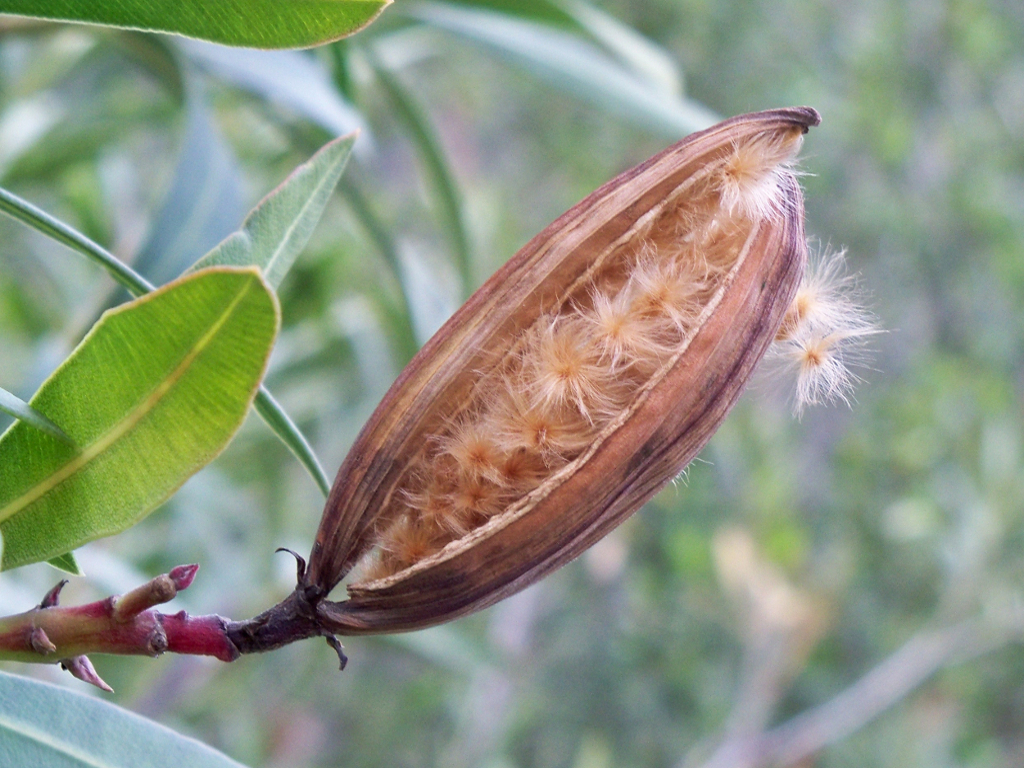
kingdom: Plantae
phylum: Tracheophyta
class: Magnoliopsida
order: Gentianales
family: Apocynaceae
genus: Nerium
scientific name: Nerium oleander
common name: Oleander
